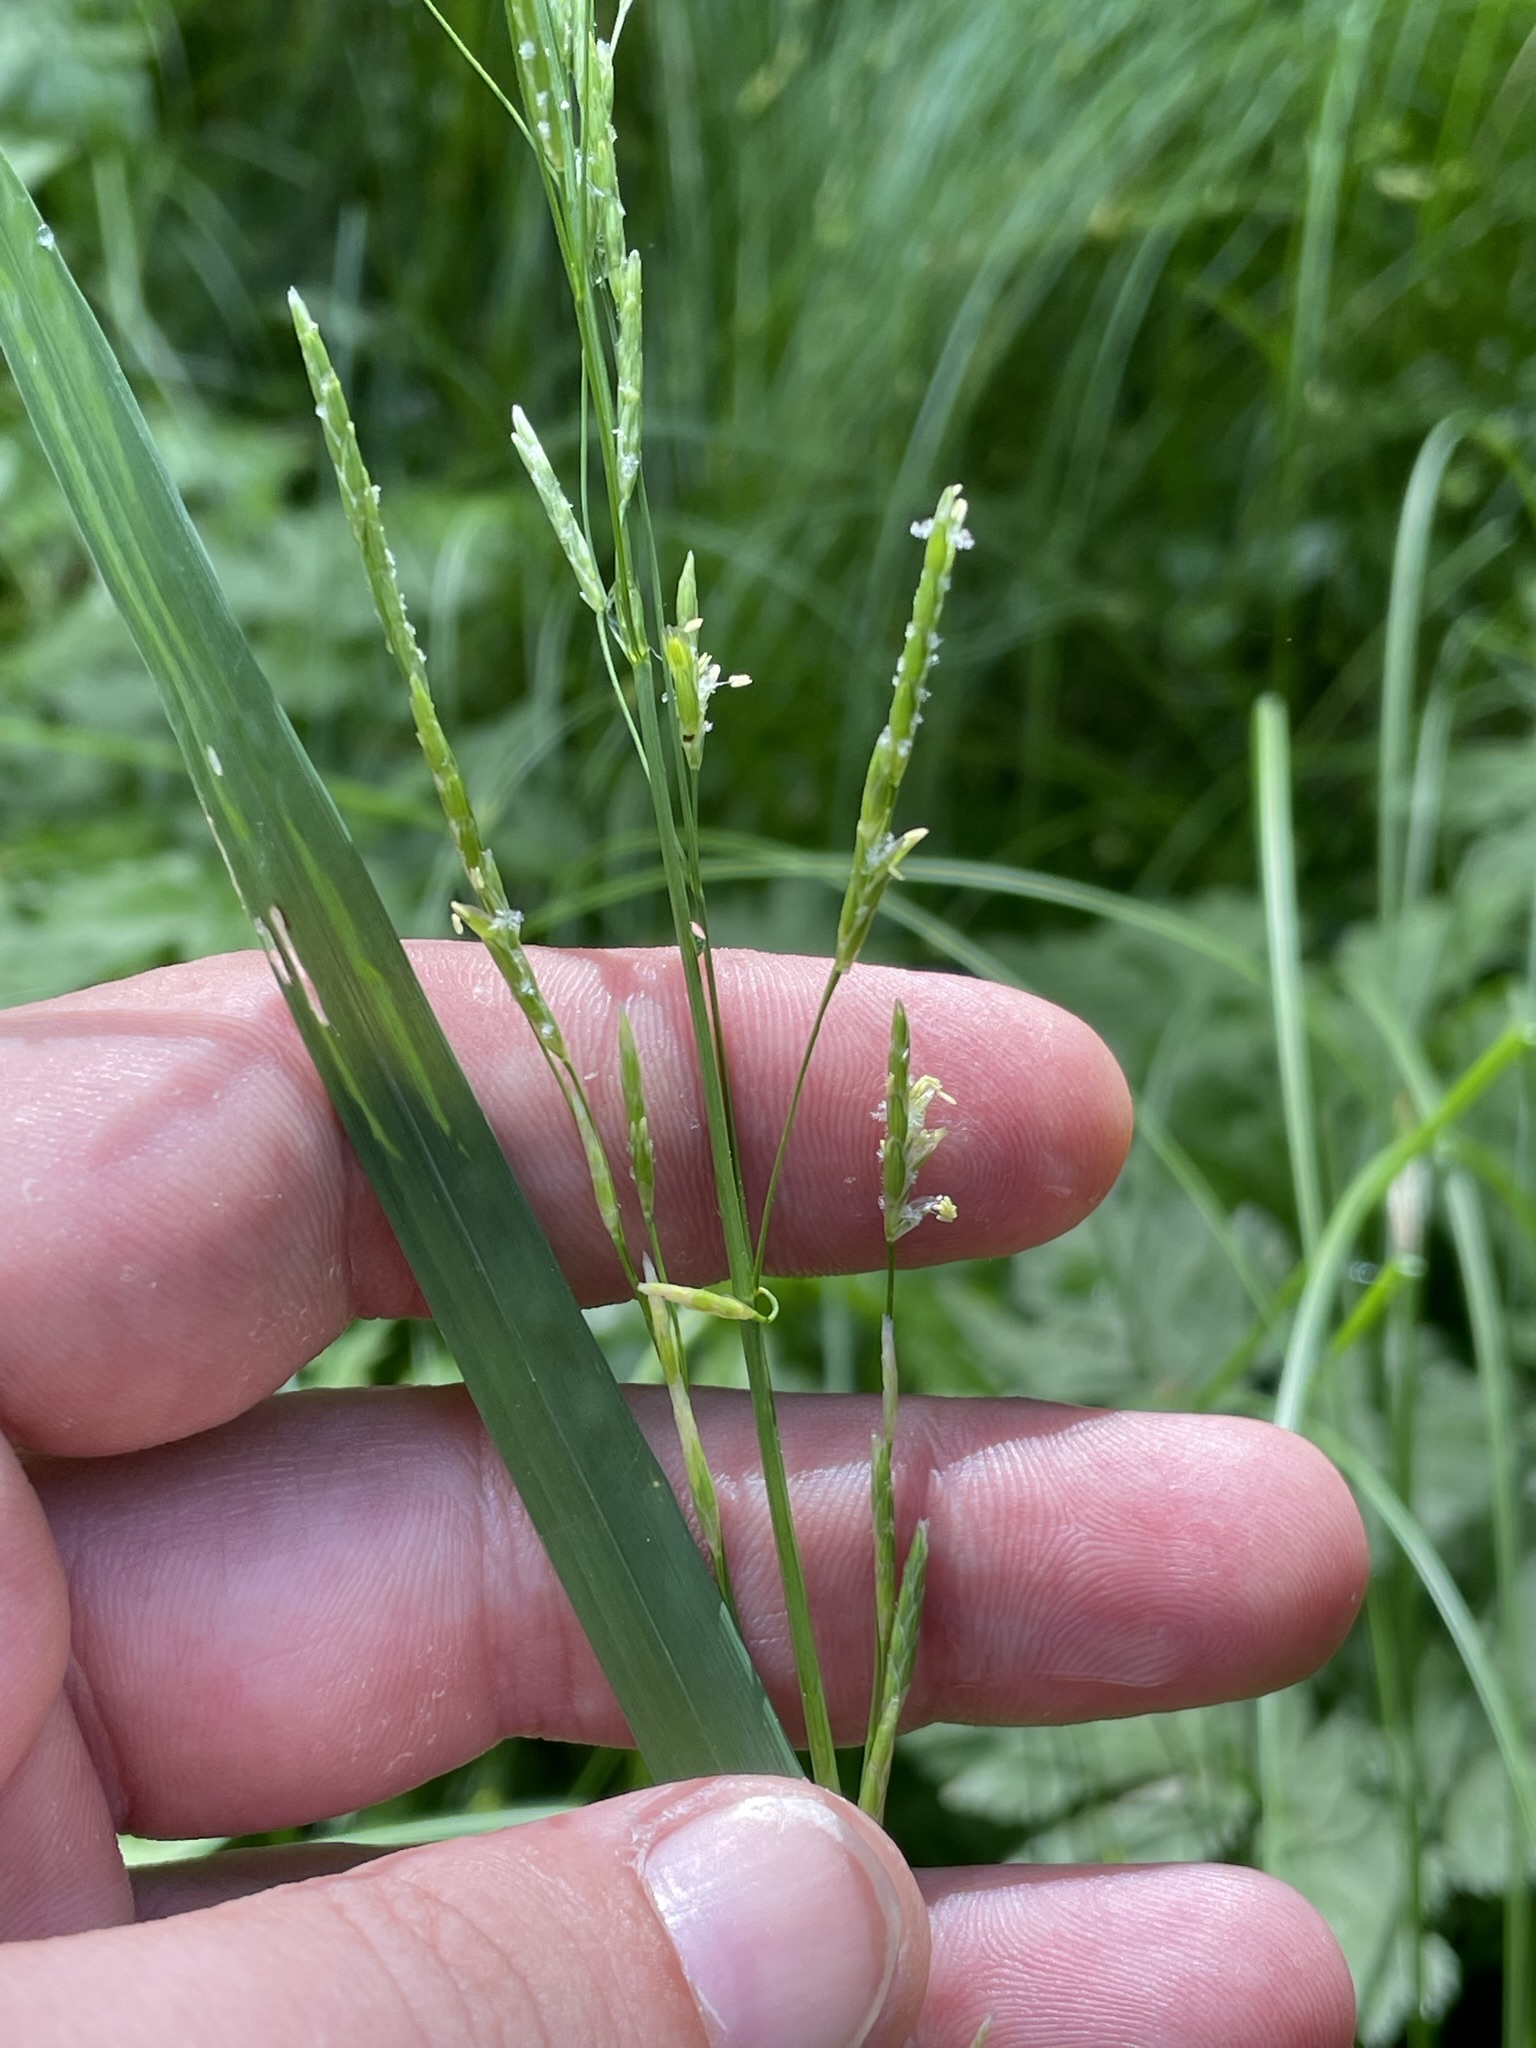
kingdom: Plantae
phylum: Tracheophyta
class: Liliopsida
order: Poales
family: Poaceae
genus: Glyceria
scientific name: Glyceria fluitans
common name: Floating sweet-grass
